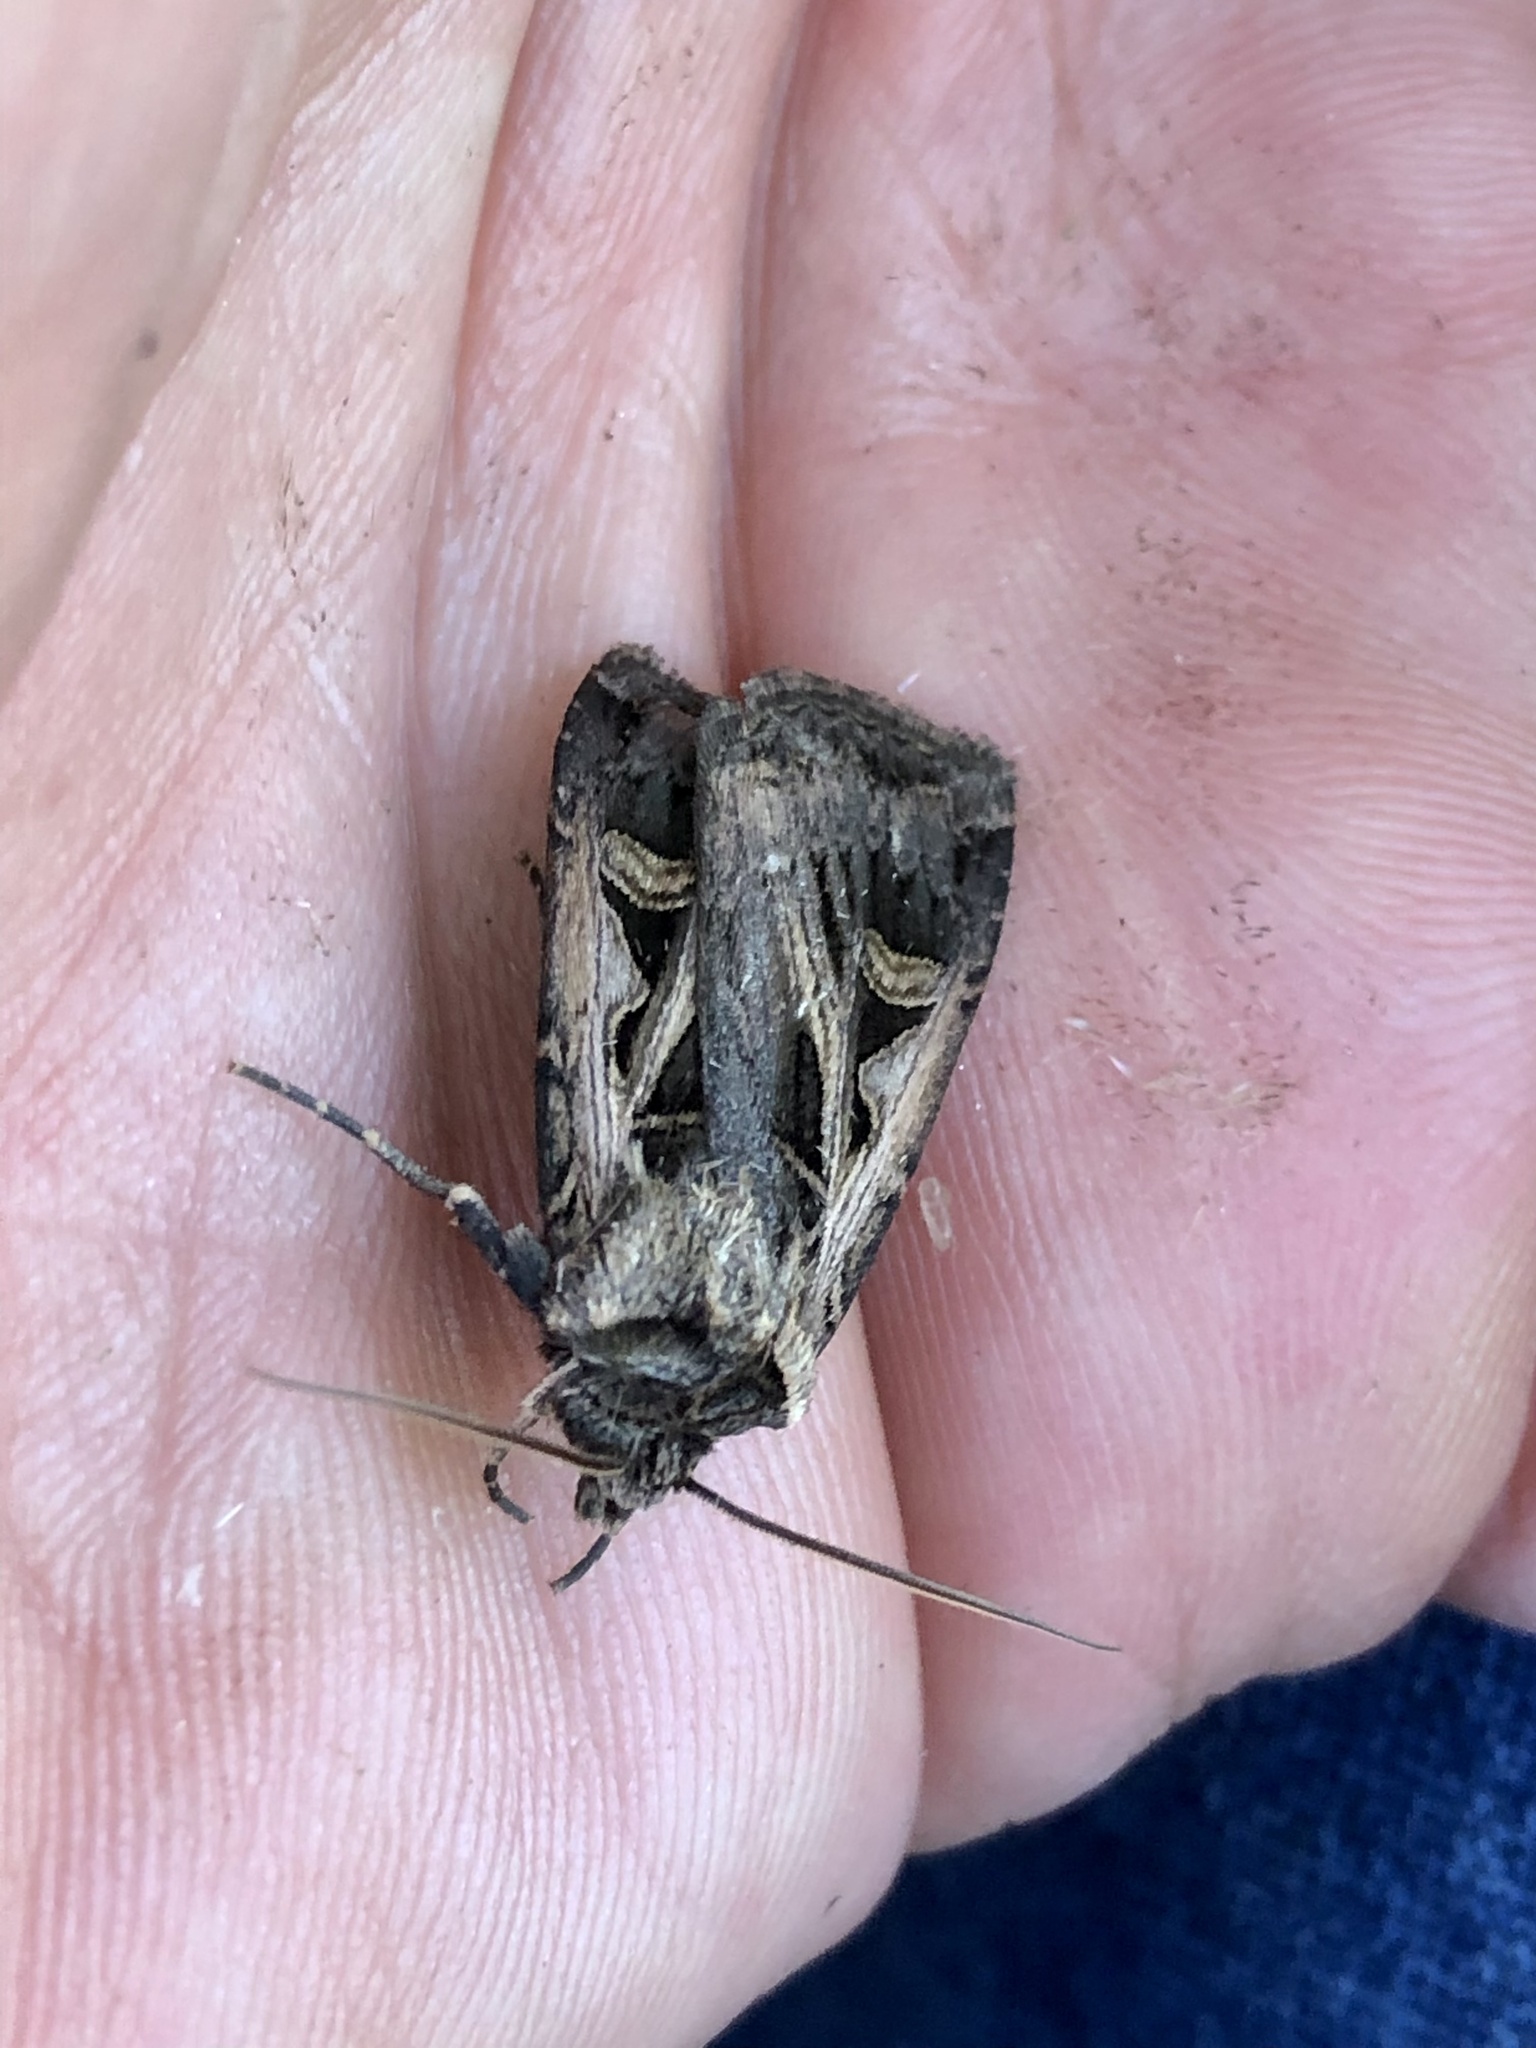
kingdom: Animalia
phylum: Arthropoda
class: Insecta
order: Lepidoptera
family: Noctuidae
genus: Feltia
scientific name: Feltia subgothica
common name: Gothic dart
